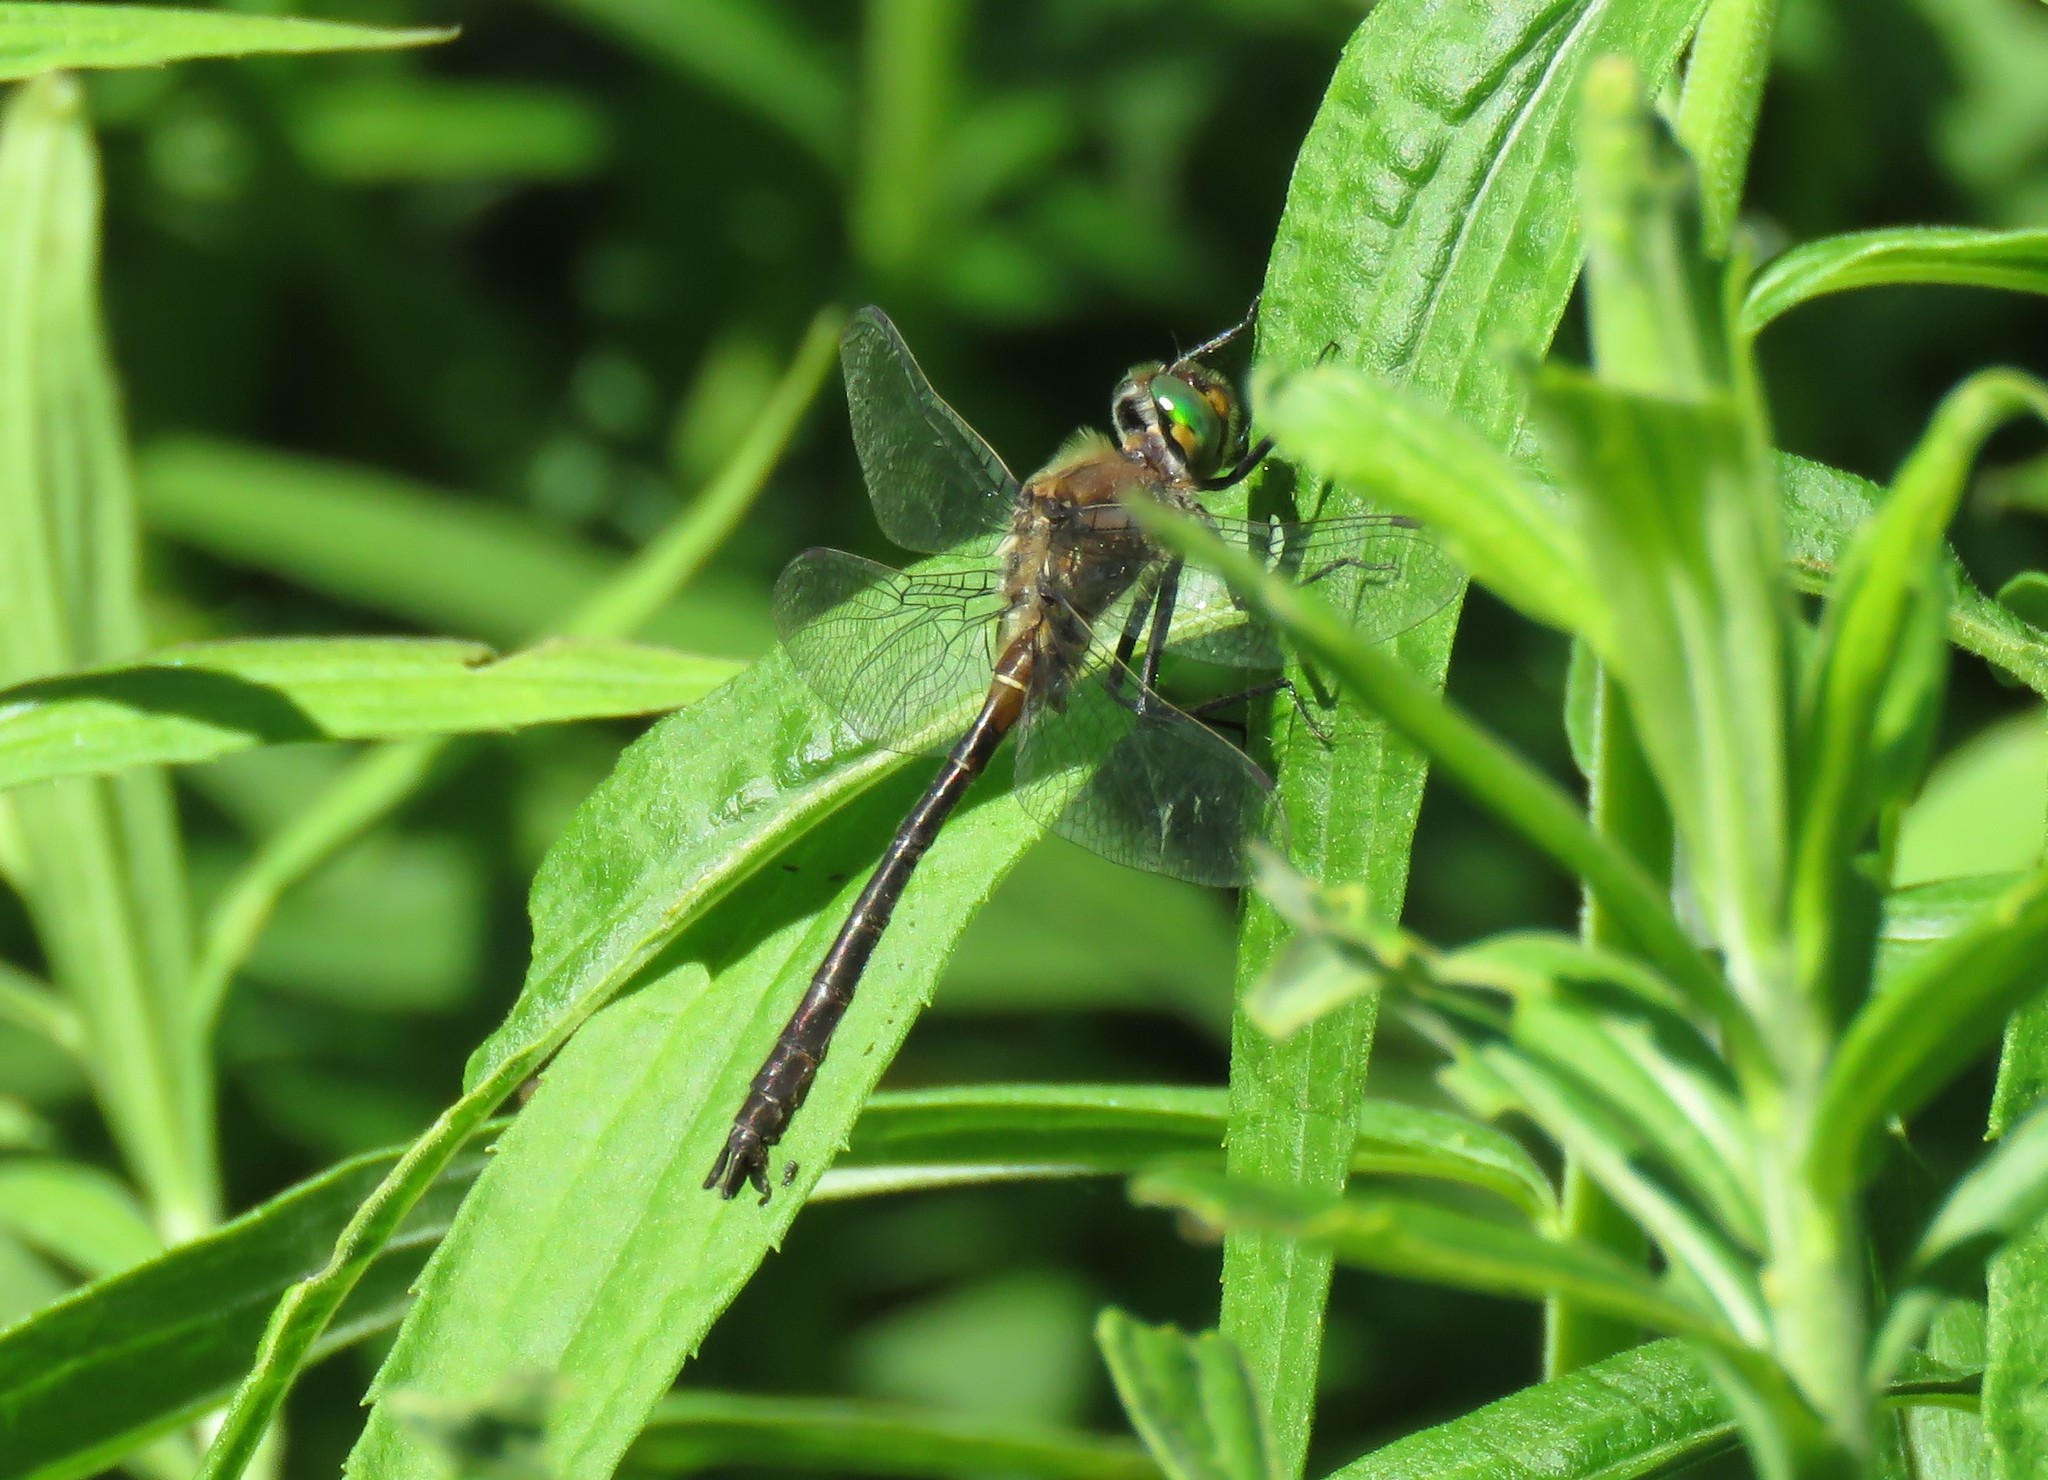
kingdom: Animalia
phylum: Arthropoda
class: Insecta
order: Odonata
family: Corduliidae
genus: Cordulia
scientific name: Cordulia shurtleffii
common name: American emerald
